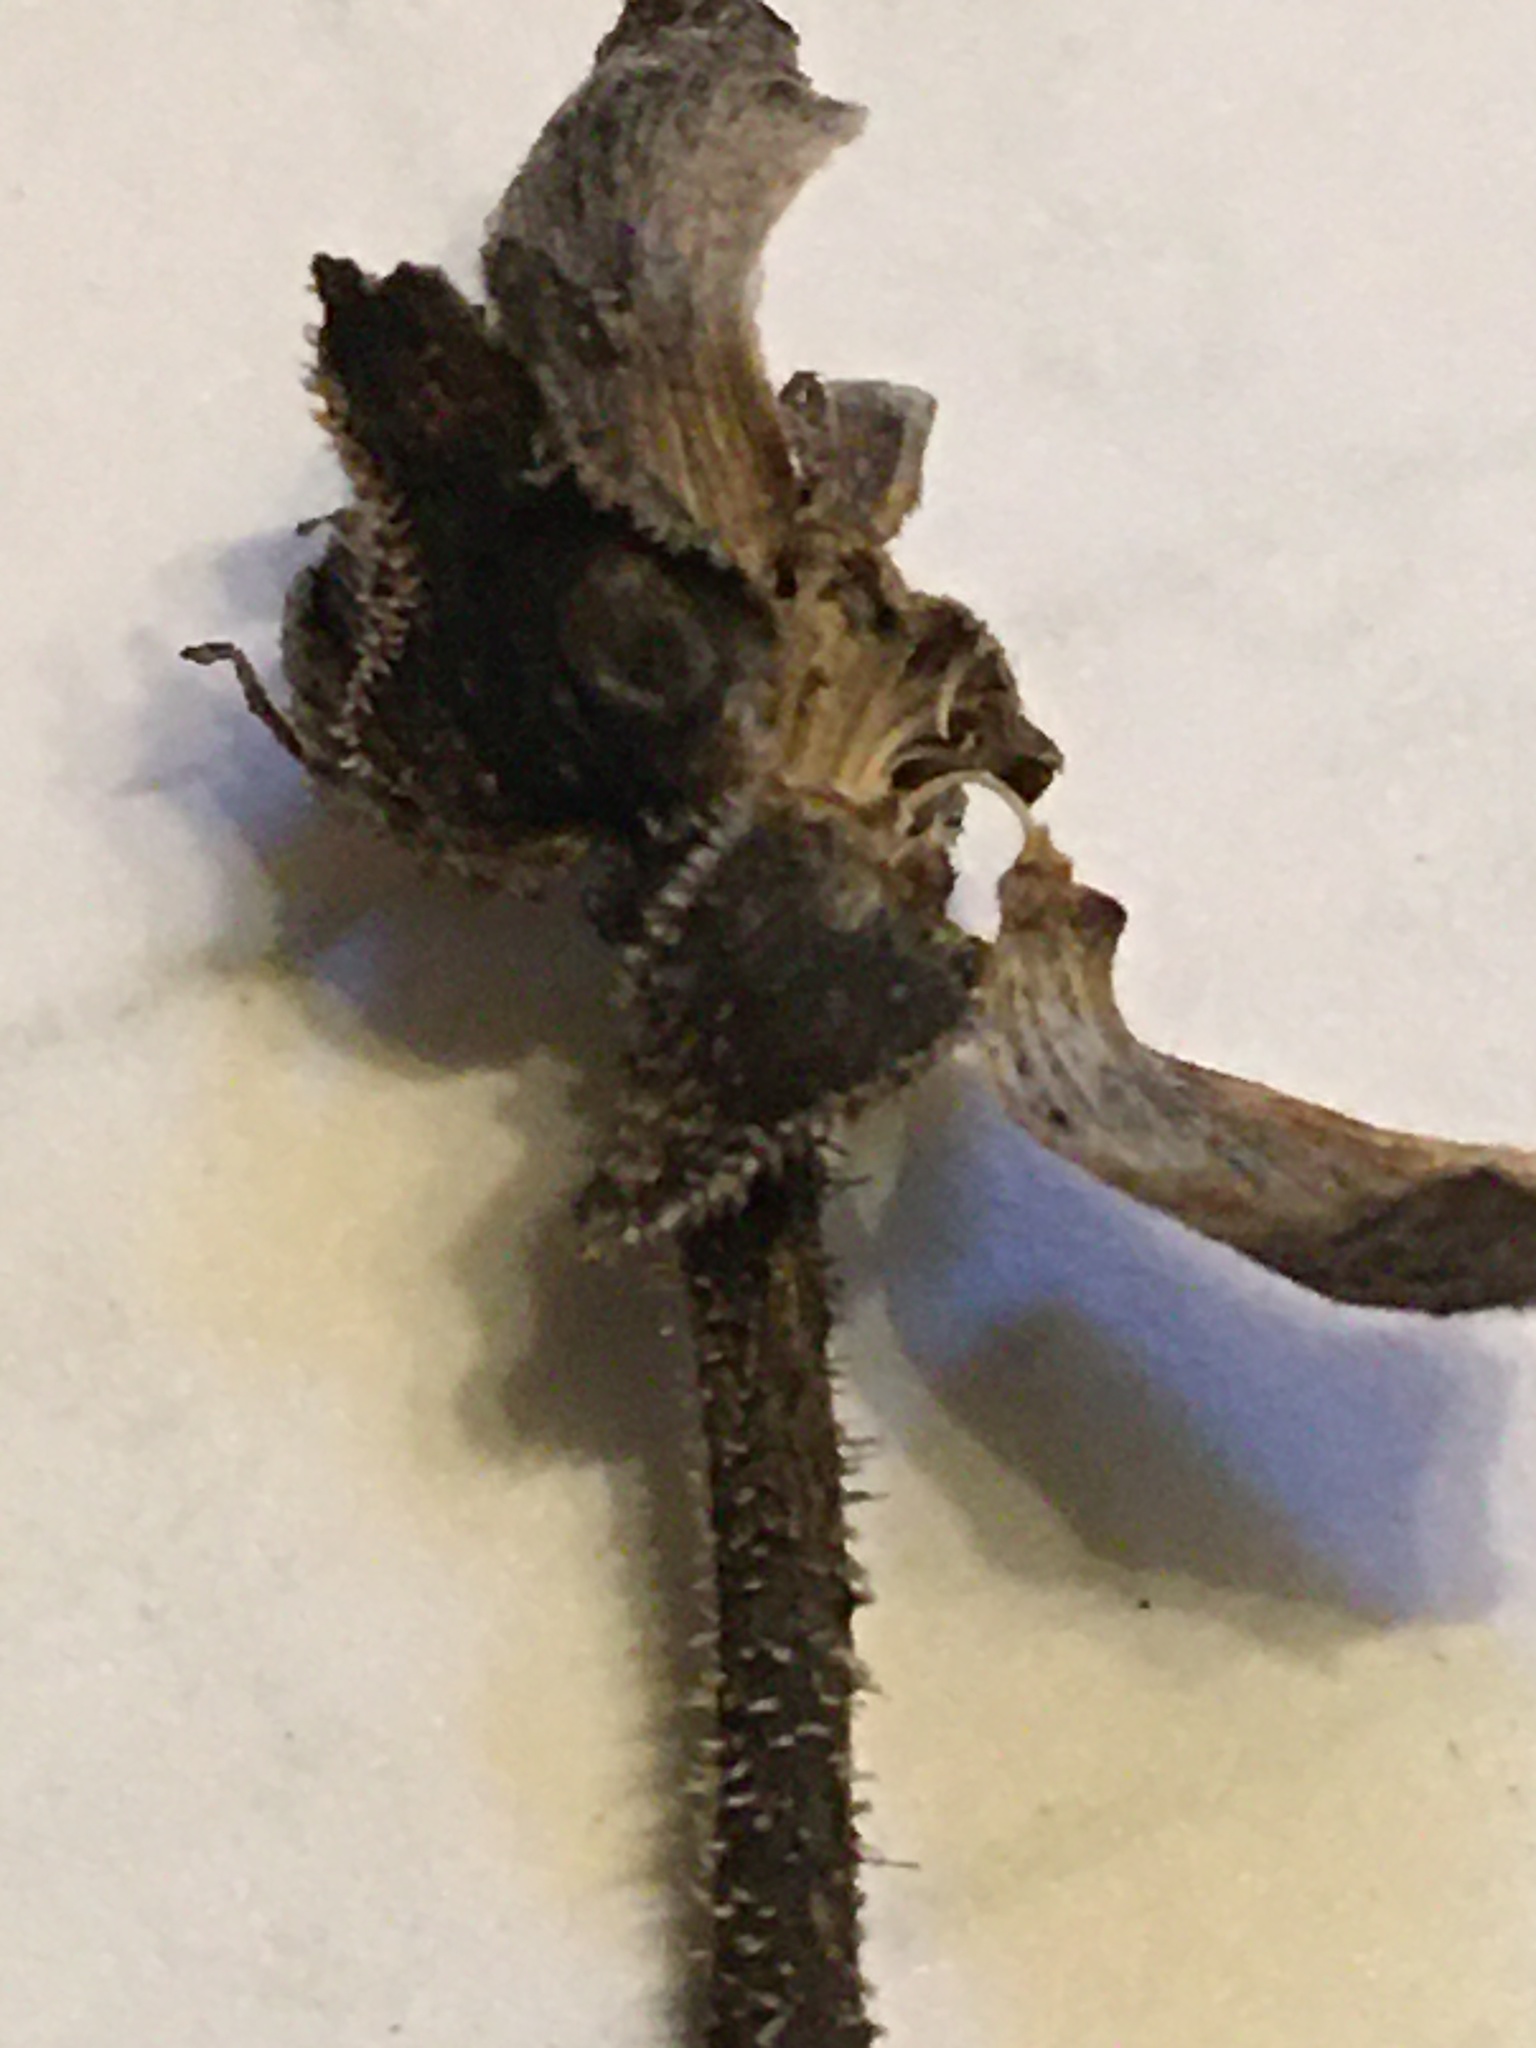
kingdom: Plantae
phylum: Tracheophyta
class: Magnoliopsida
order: Asterales
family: Asteraceae
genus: Silphium
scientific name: Silphium asteriscus
